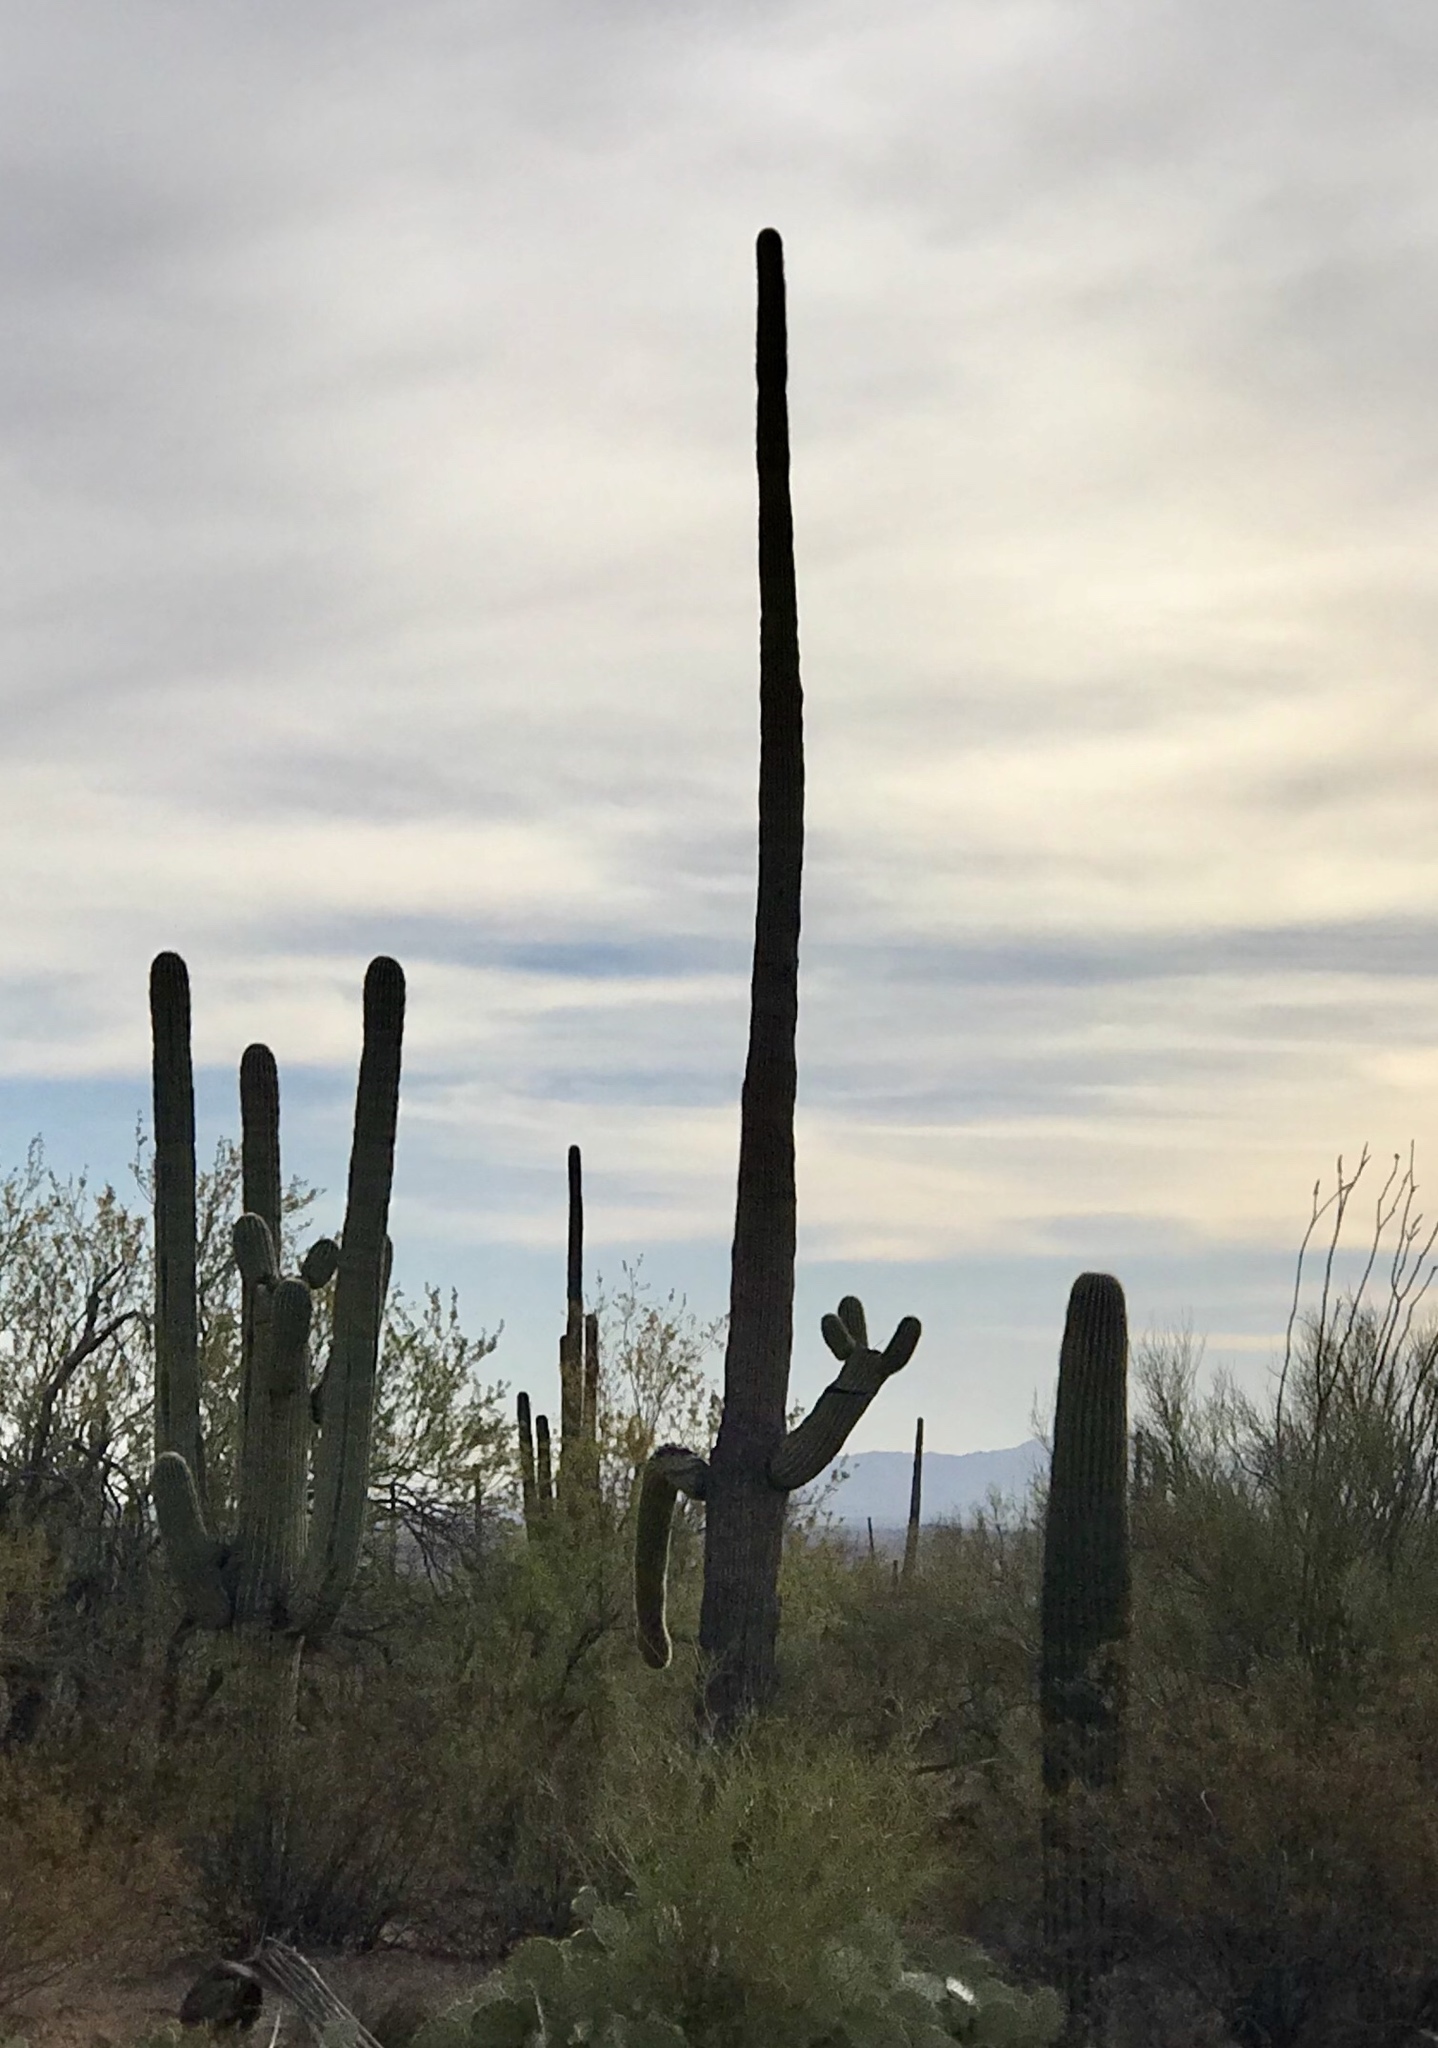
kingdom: Plantae
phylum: Tracheophyta
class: Magnoliopsida
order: Caryophyllales
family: Cactaceae
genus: Carnegiea
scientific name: Carnegiea gigantea
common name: Saguaro
